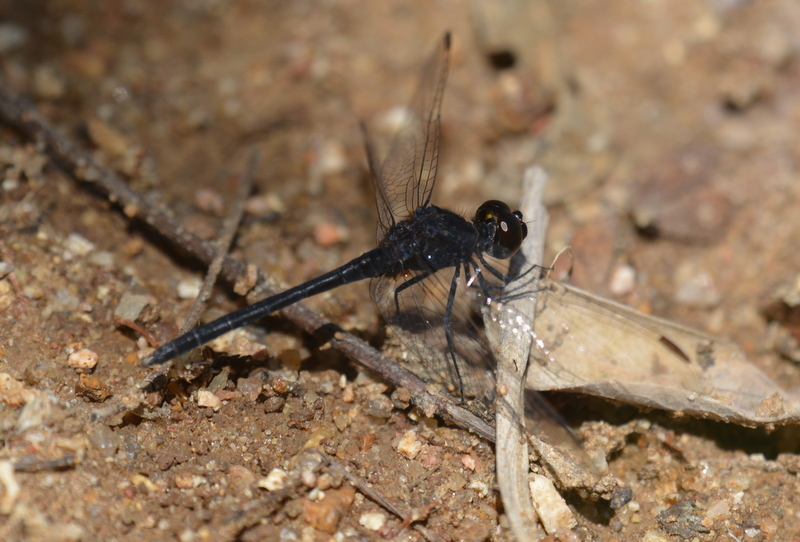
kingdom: Animalia
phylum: Arthropoda
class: Insecta
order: Odonata
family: Libellulidae
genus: Diplacodes
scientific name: Diplacodes lefebvrii
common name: Black percher
